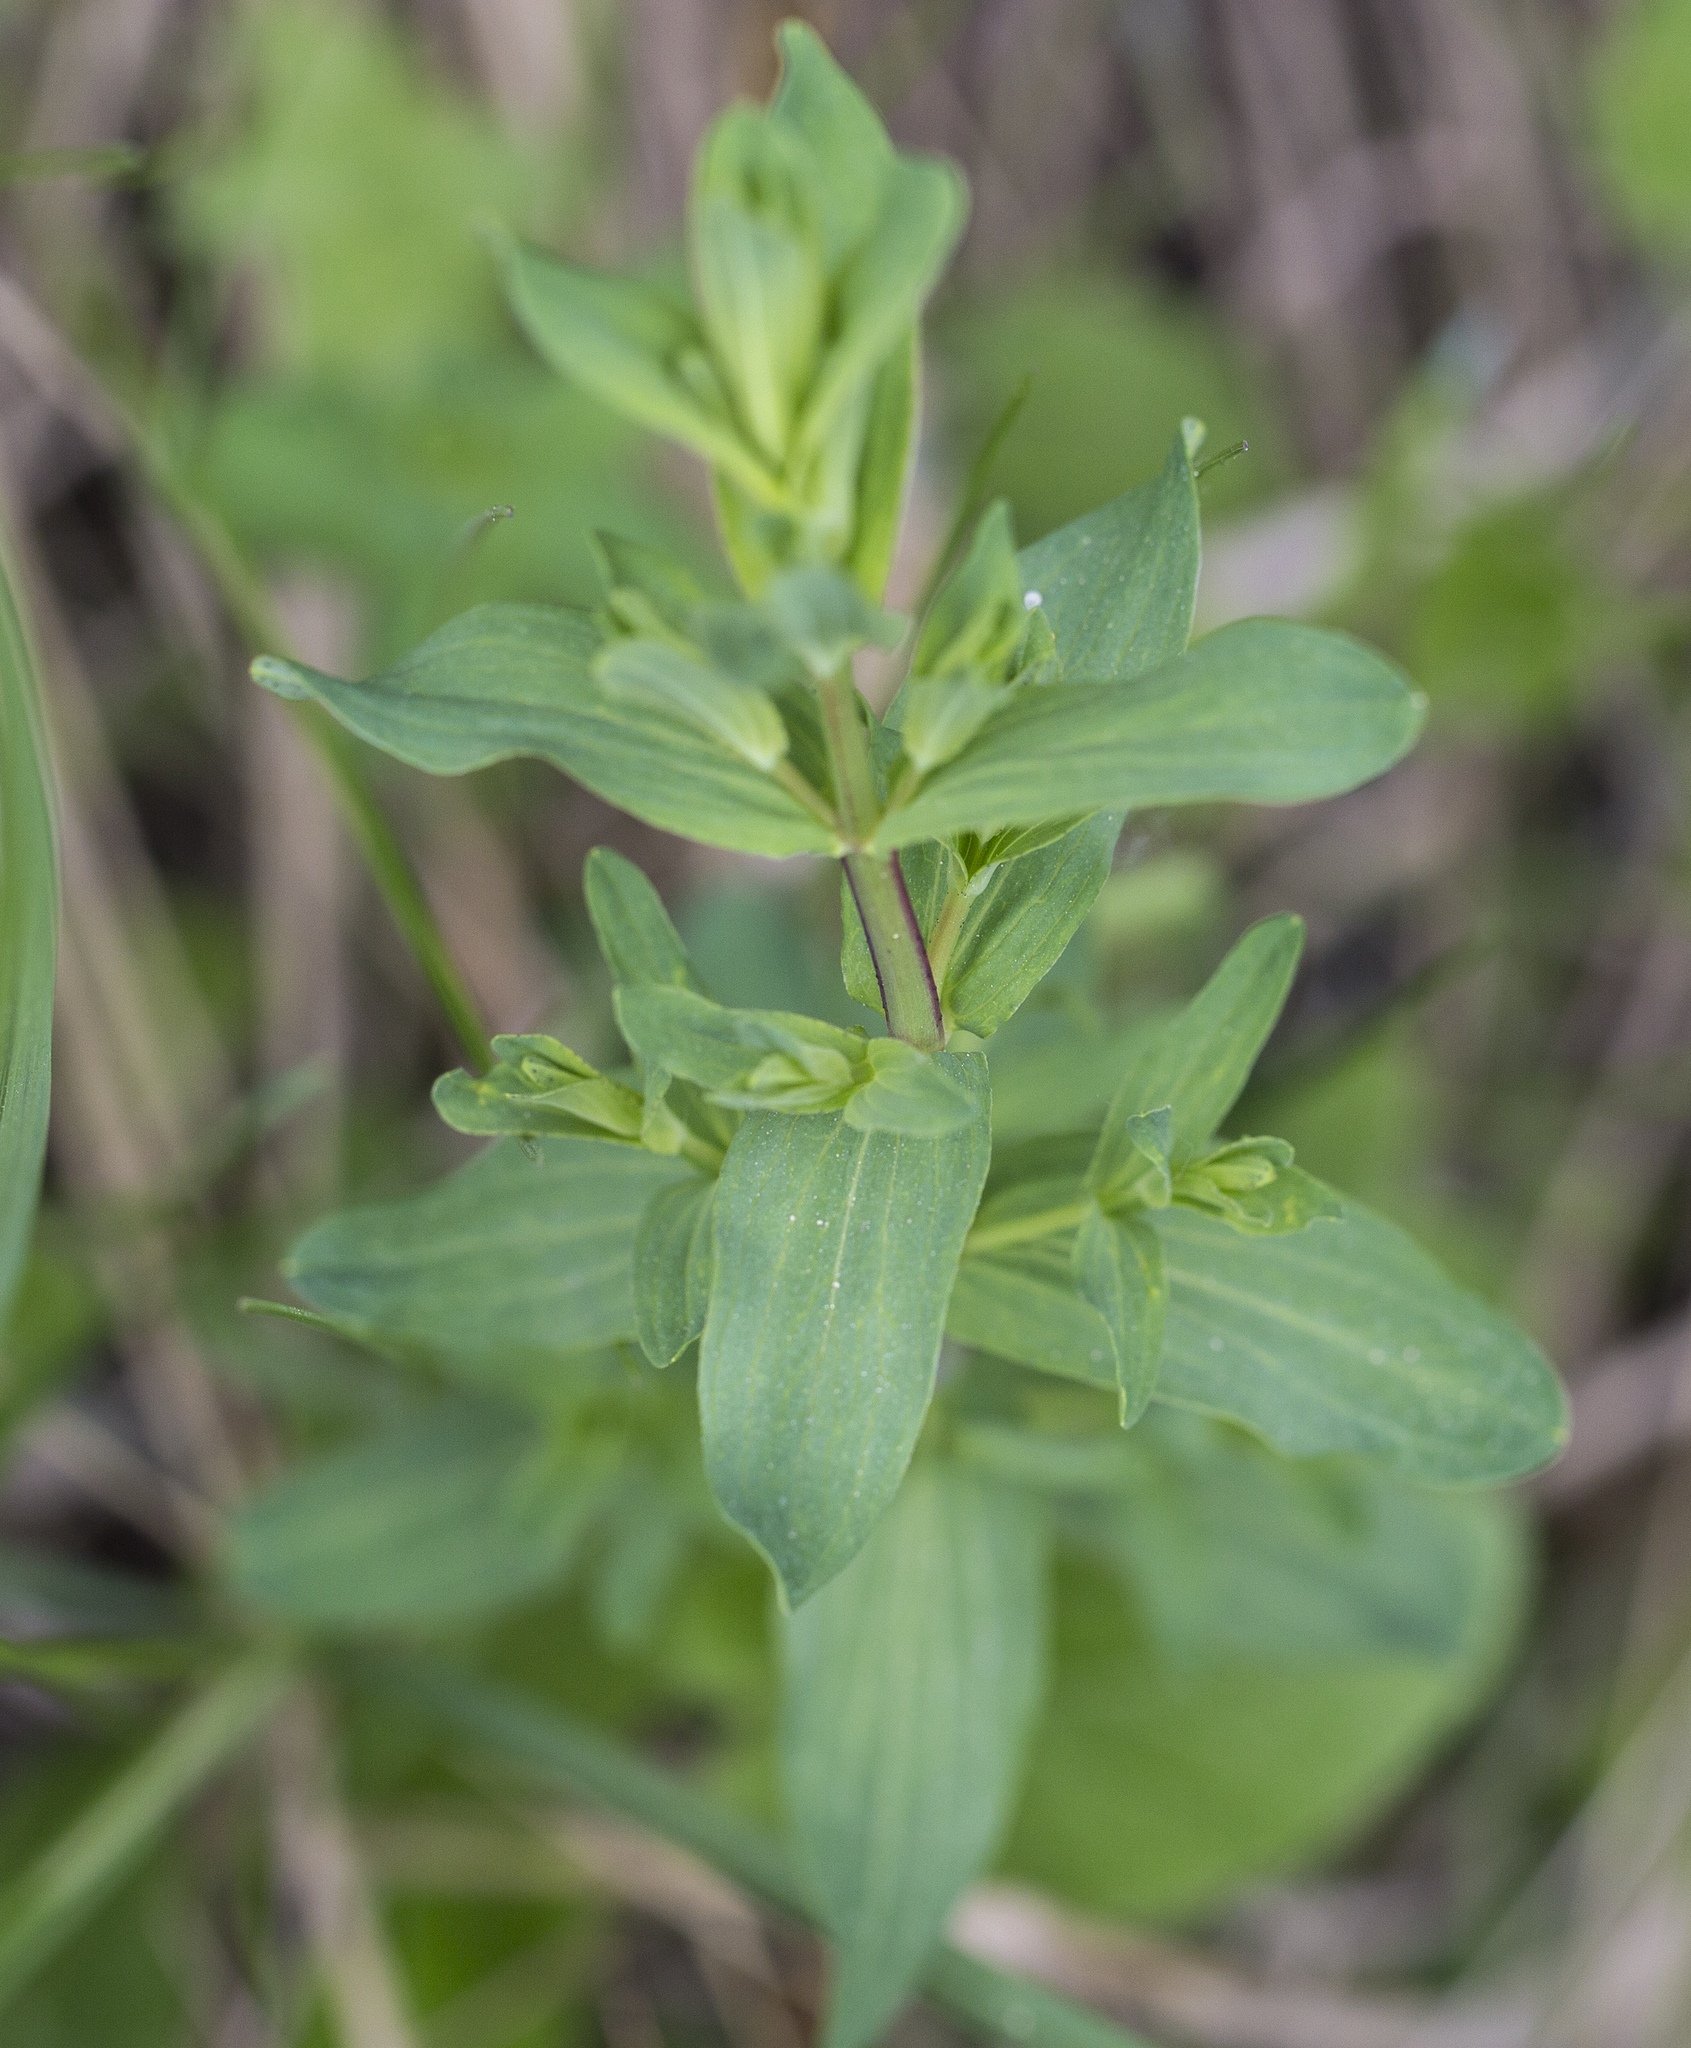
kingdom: Plantae
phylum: Tracheophyta
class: Magnoliopsida
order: Malpighiales
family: Hypericaceae
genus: Hypericum
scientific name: Hypericum perforatum
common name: Common st. johnswort
